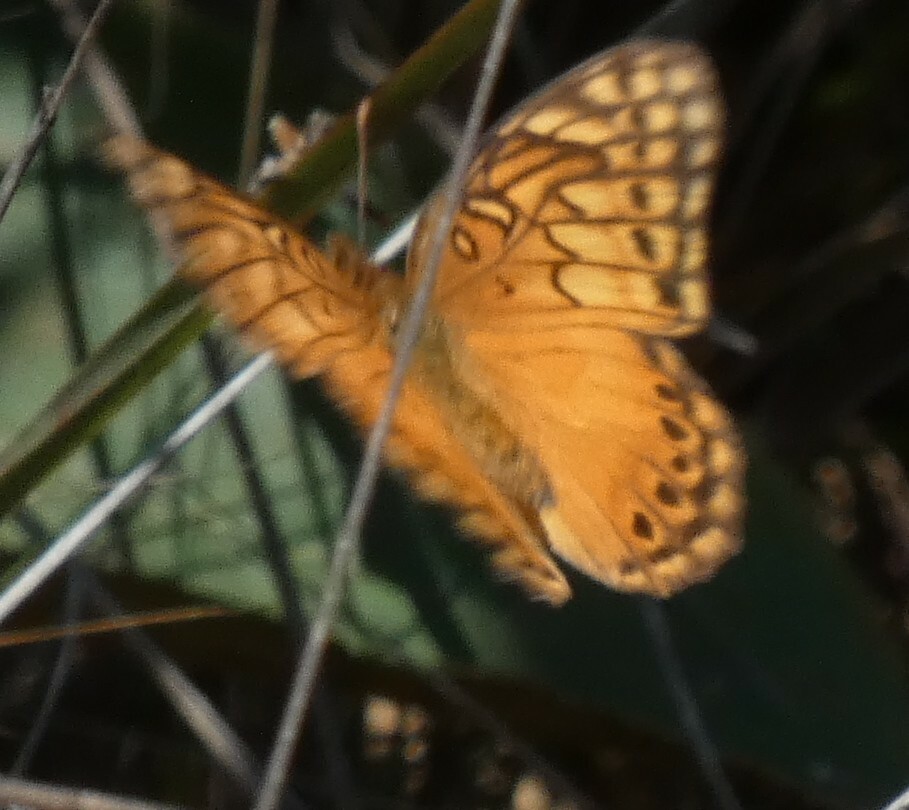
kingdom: Animalia
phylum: Arthropoda
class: Insecta
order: Lepidoptera
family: Nymphalidae
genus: Euptoieta
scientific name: Euptoieta hegesia
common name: Mexican fritillary
